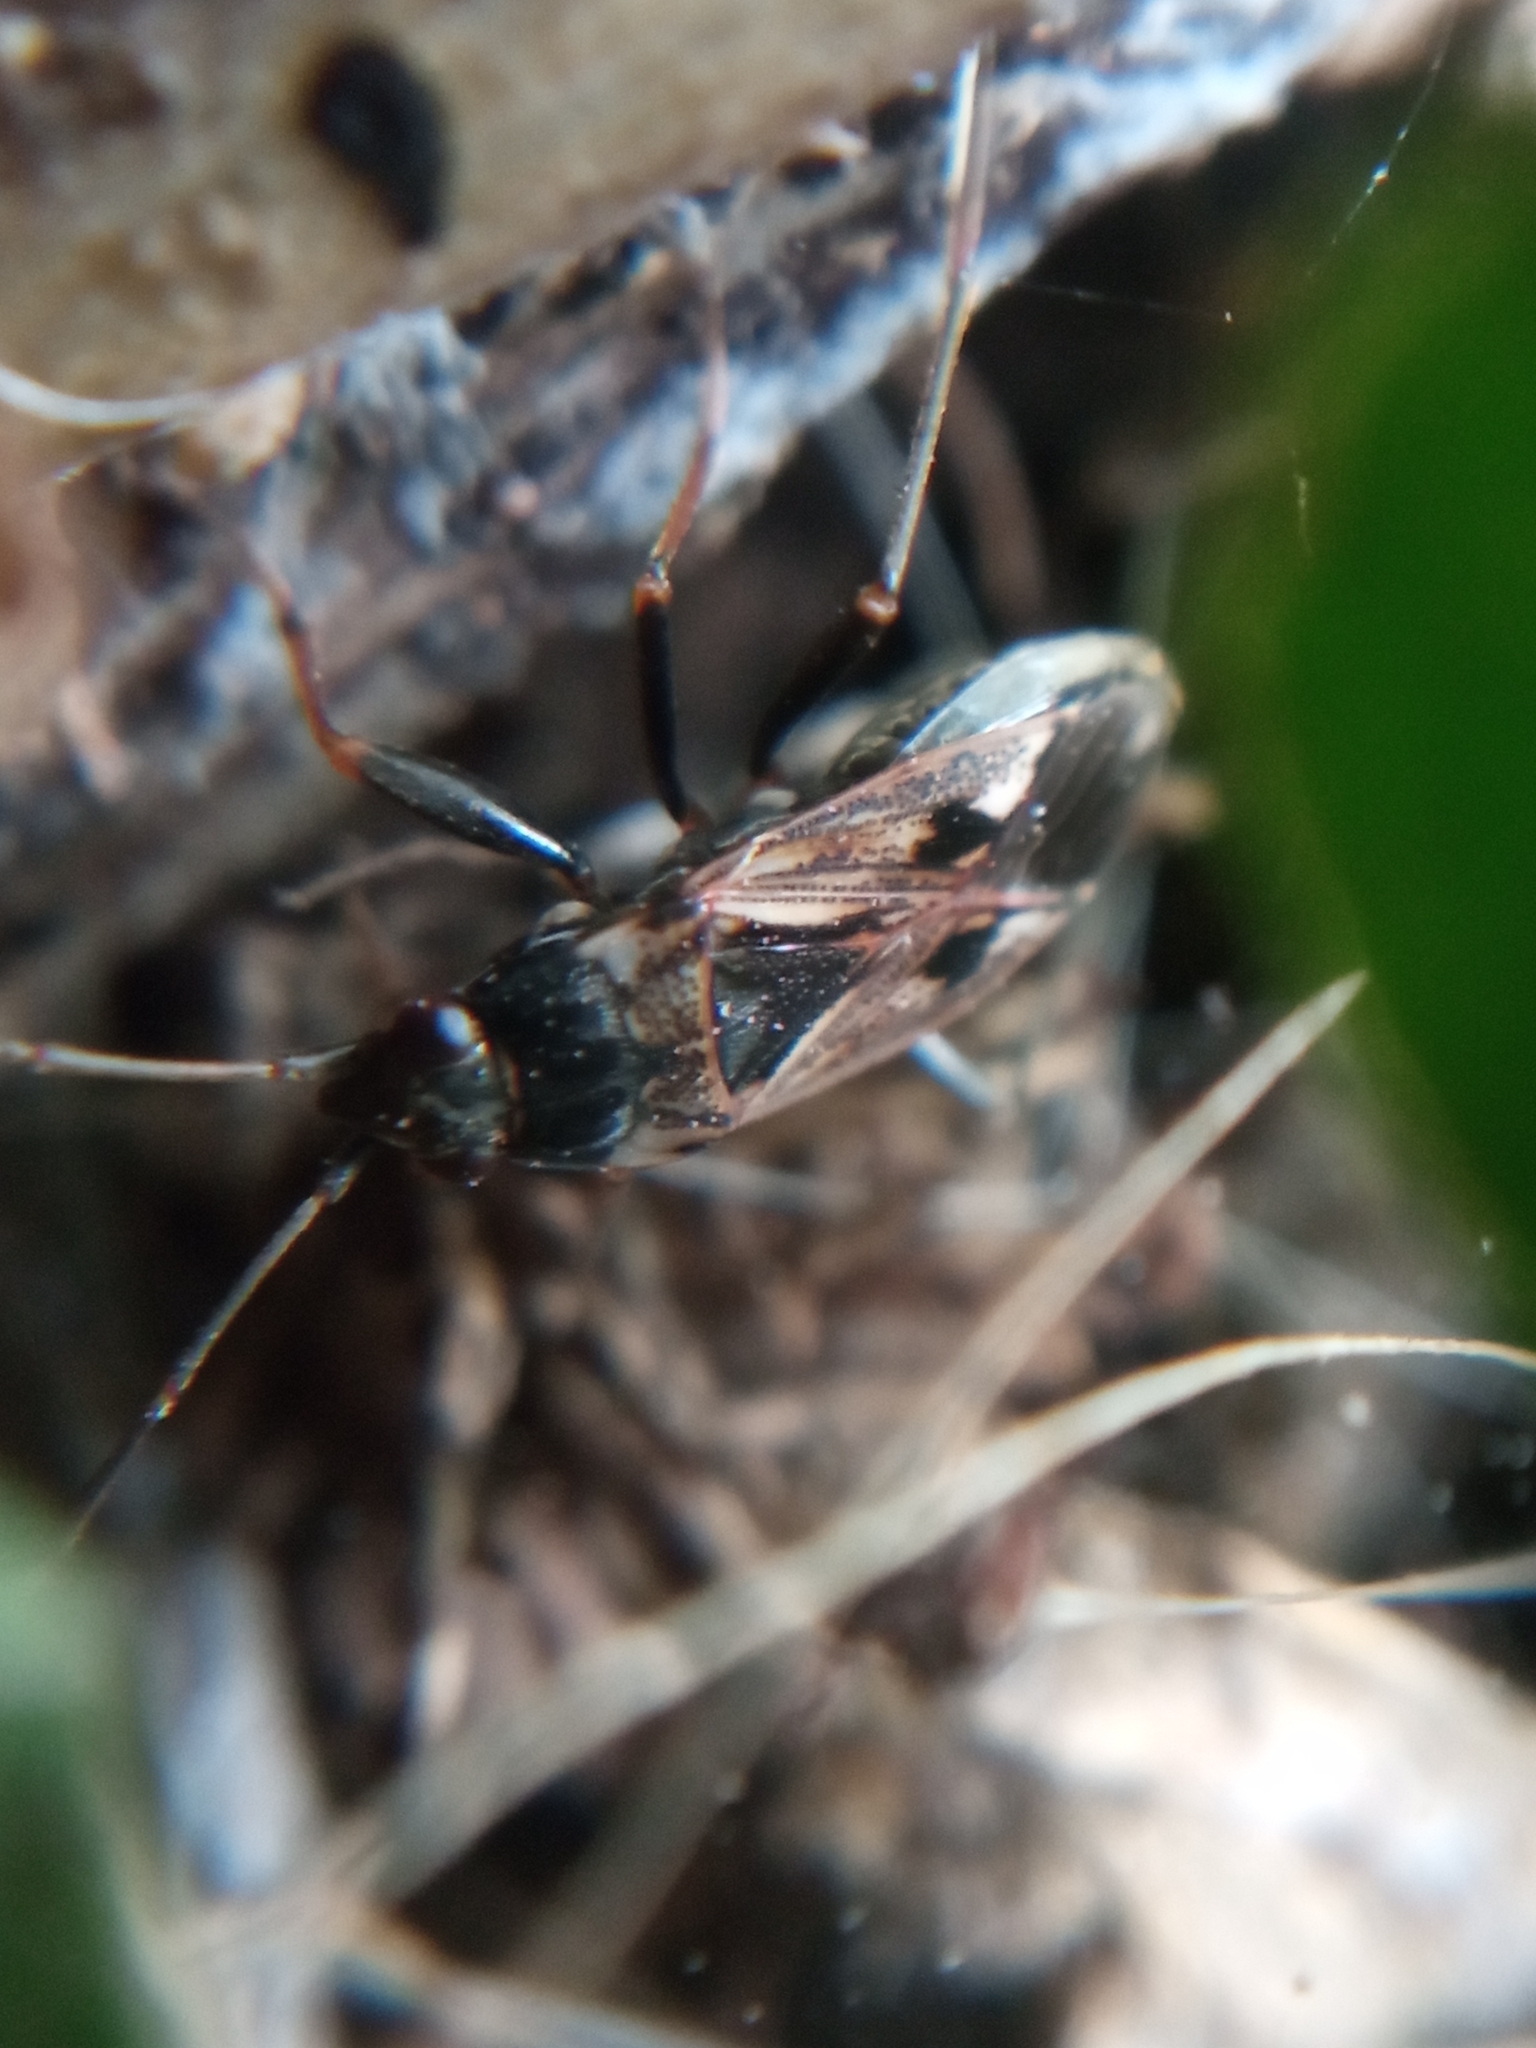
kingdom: Animalia
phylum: Arthropoda
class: Insecta
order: Hemiptera
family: Rhyparochromidae
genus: Rhyparochromus
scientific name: Rhyparochromus vulgaris
